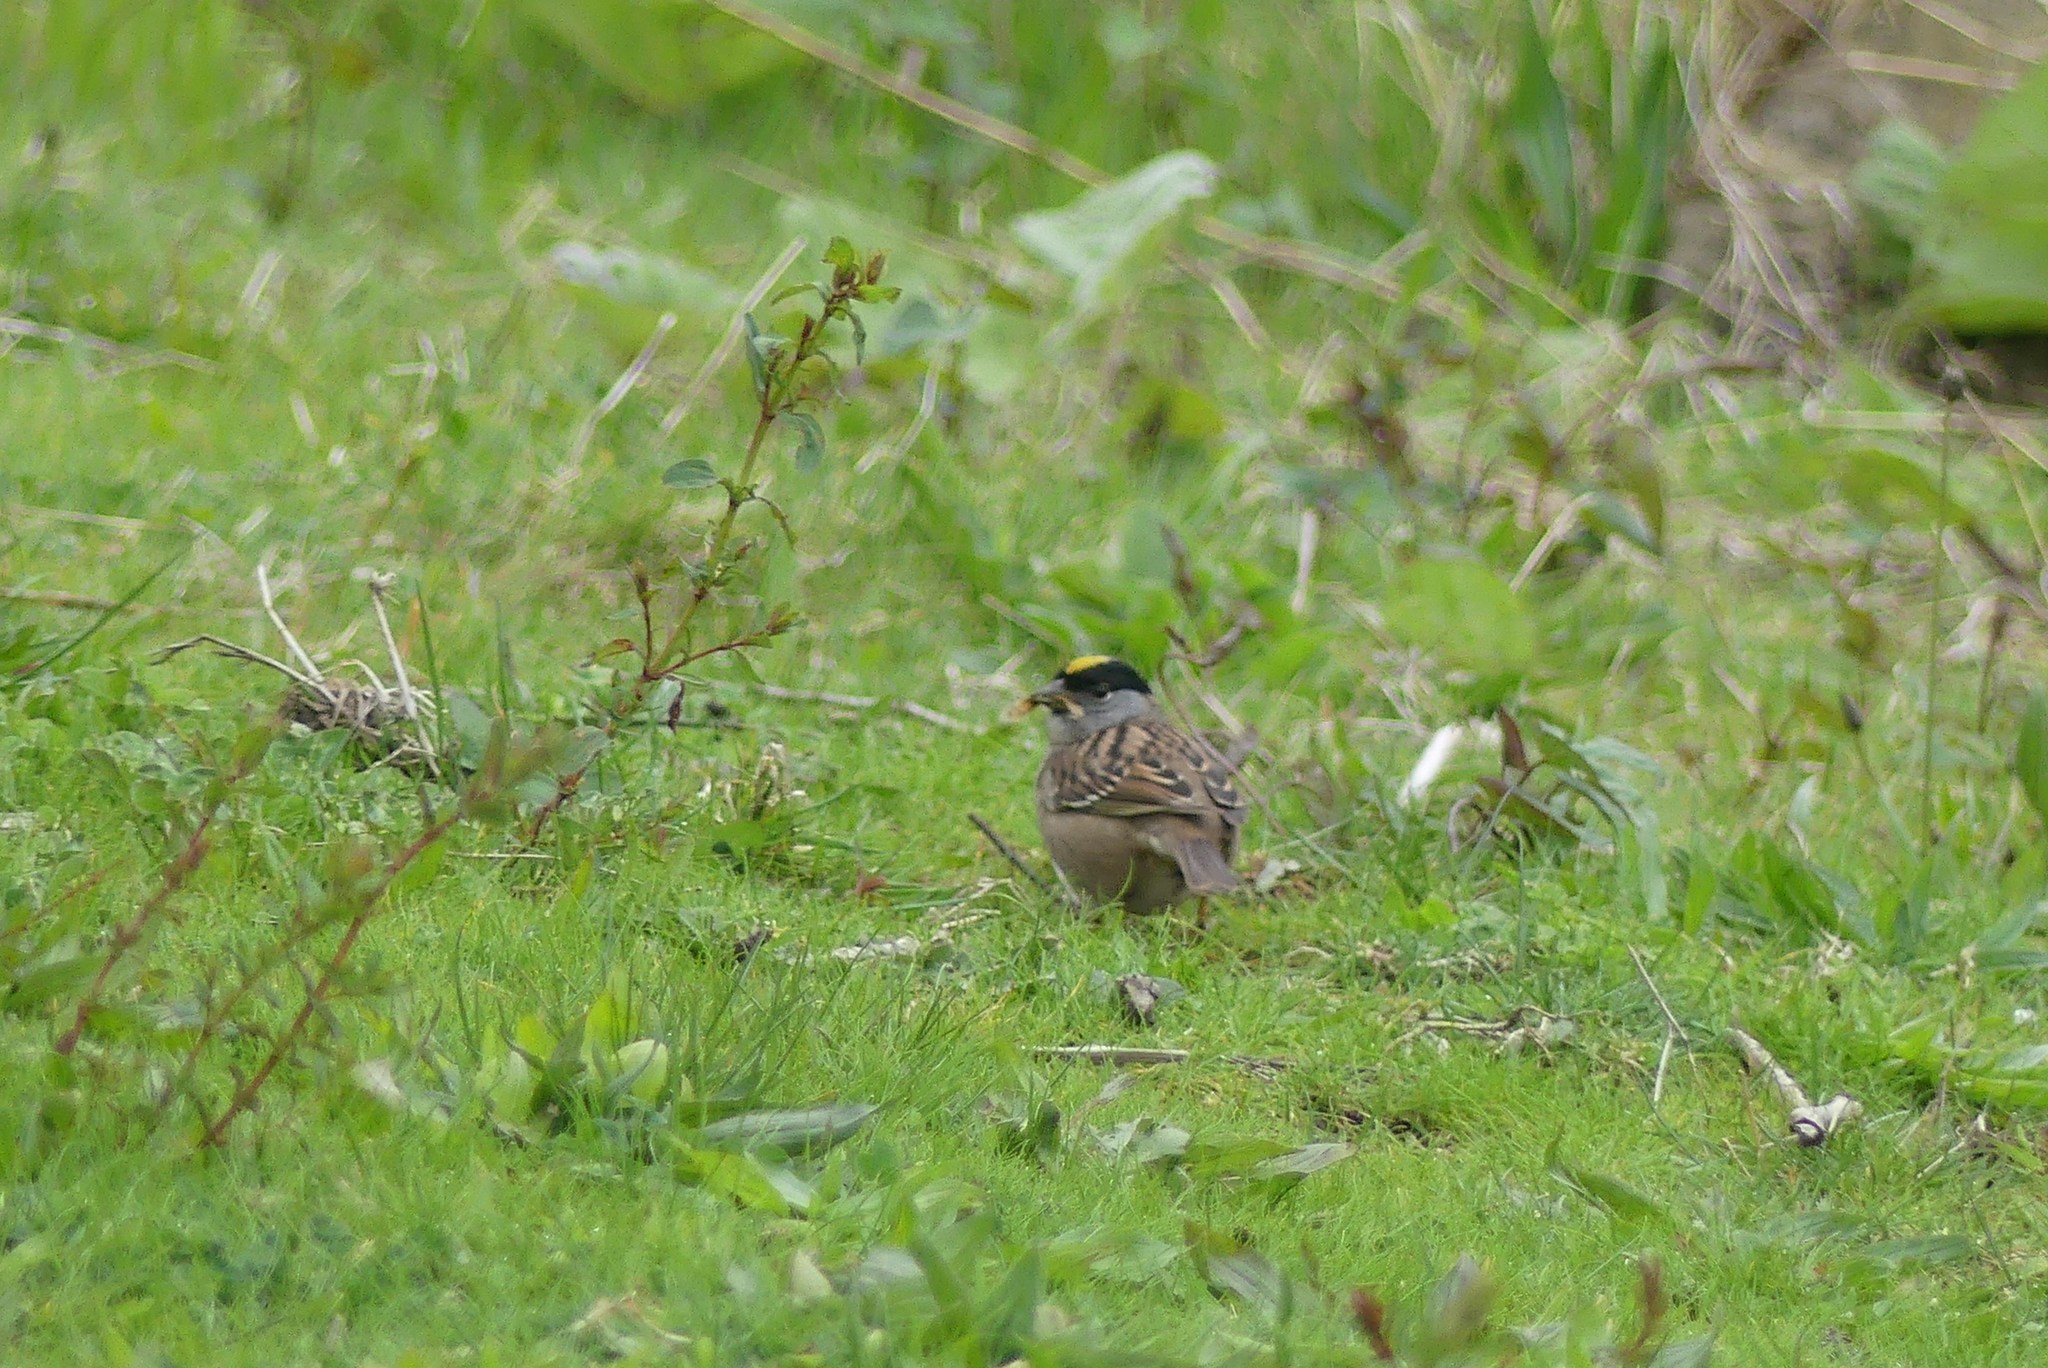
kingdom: Animalia
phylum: Chordata
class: Aves
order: Passeriformes
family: Passerellidae
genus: Zonotrichia
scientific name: Zonotrichia atricapilla
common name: Golden-crowned sparrow
